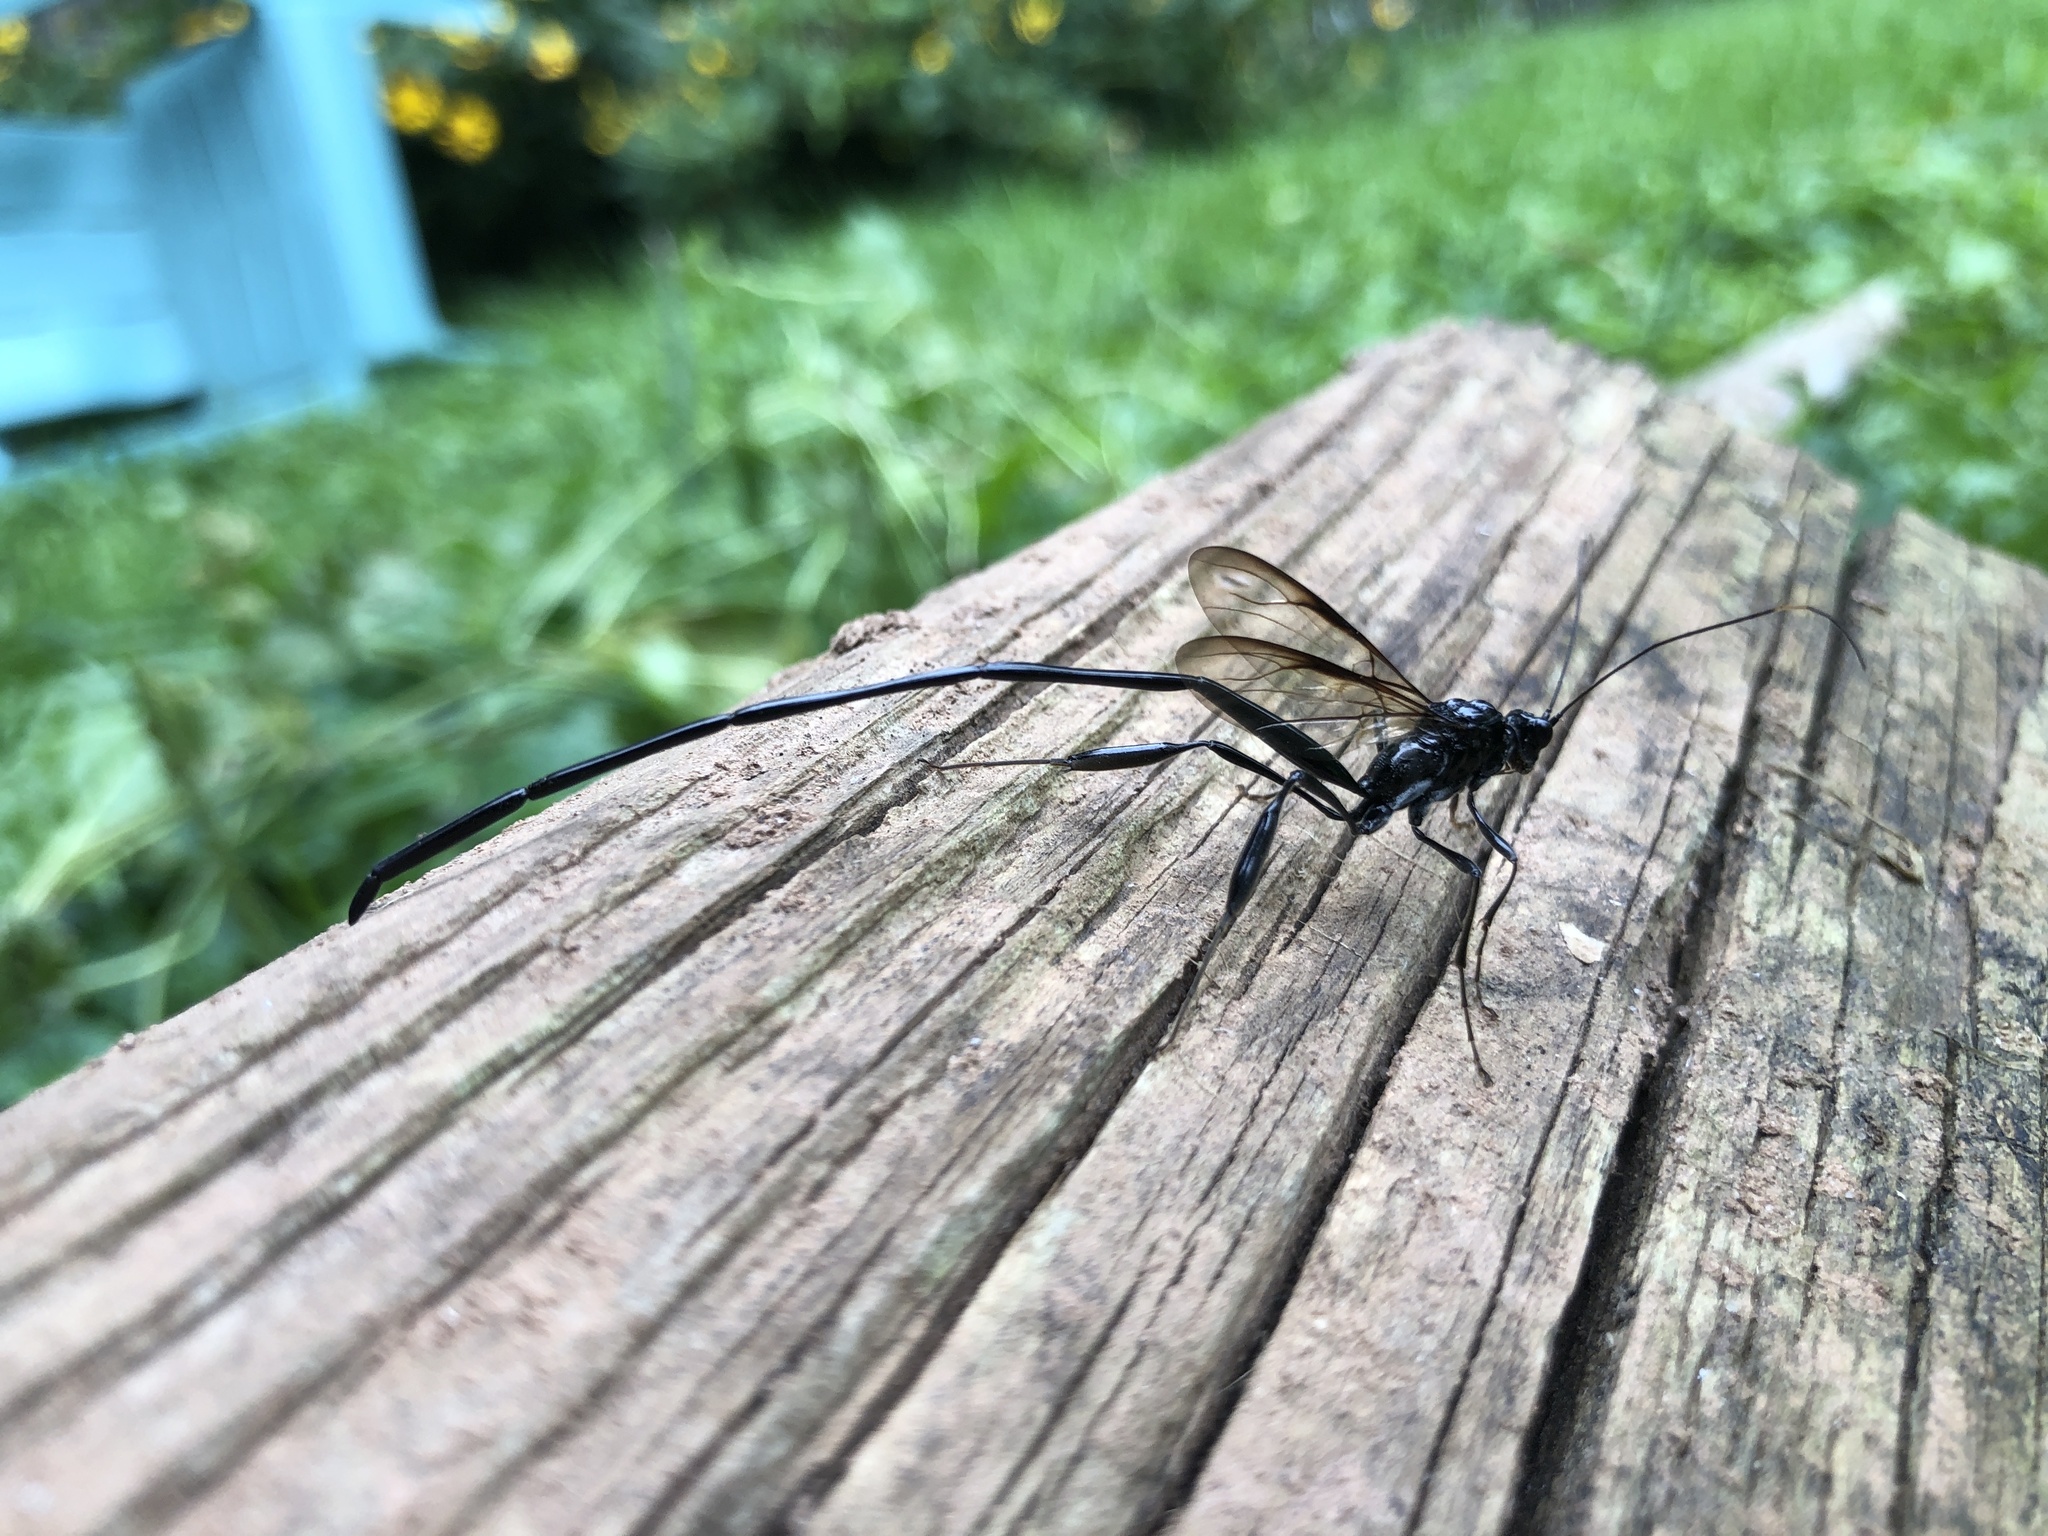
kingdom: Animalia
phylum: Arthropoda
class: Insecta
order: Hymenoptera
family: Pelecinidae
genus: Pelecinus
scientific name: Pelecinus polyturator
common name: American pelecinid wasp
